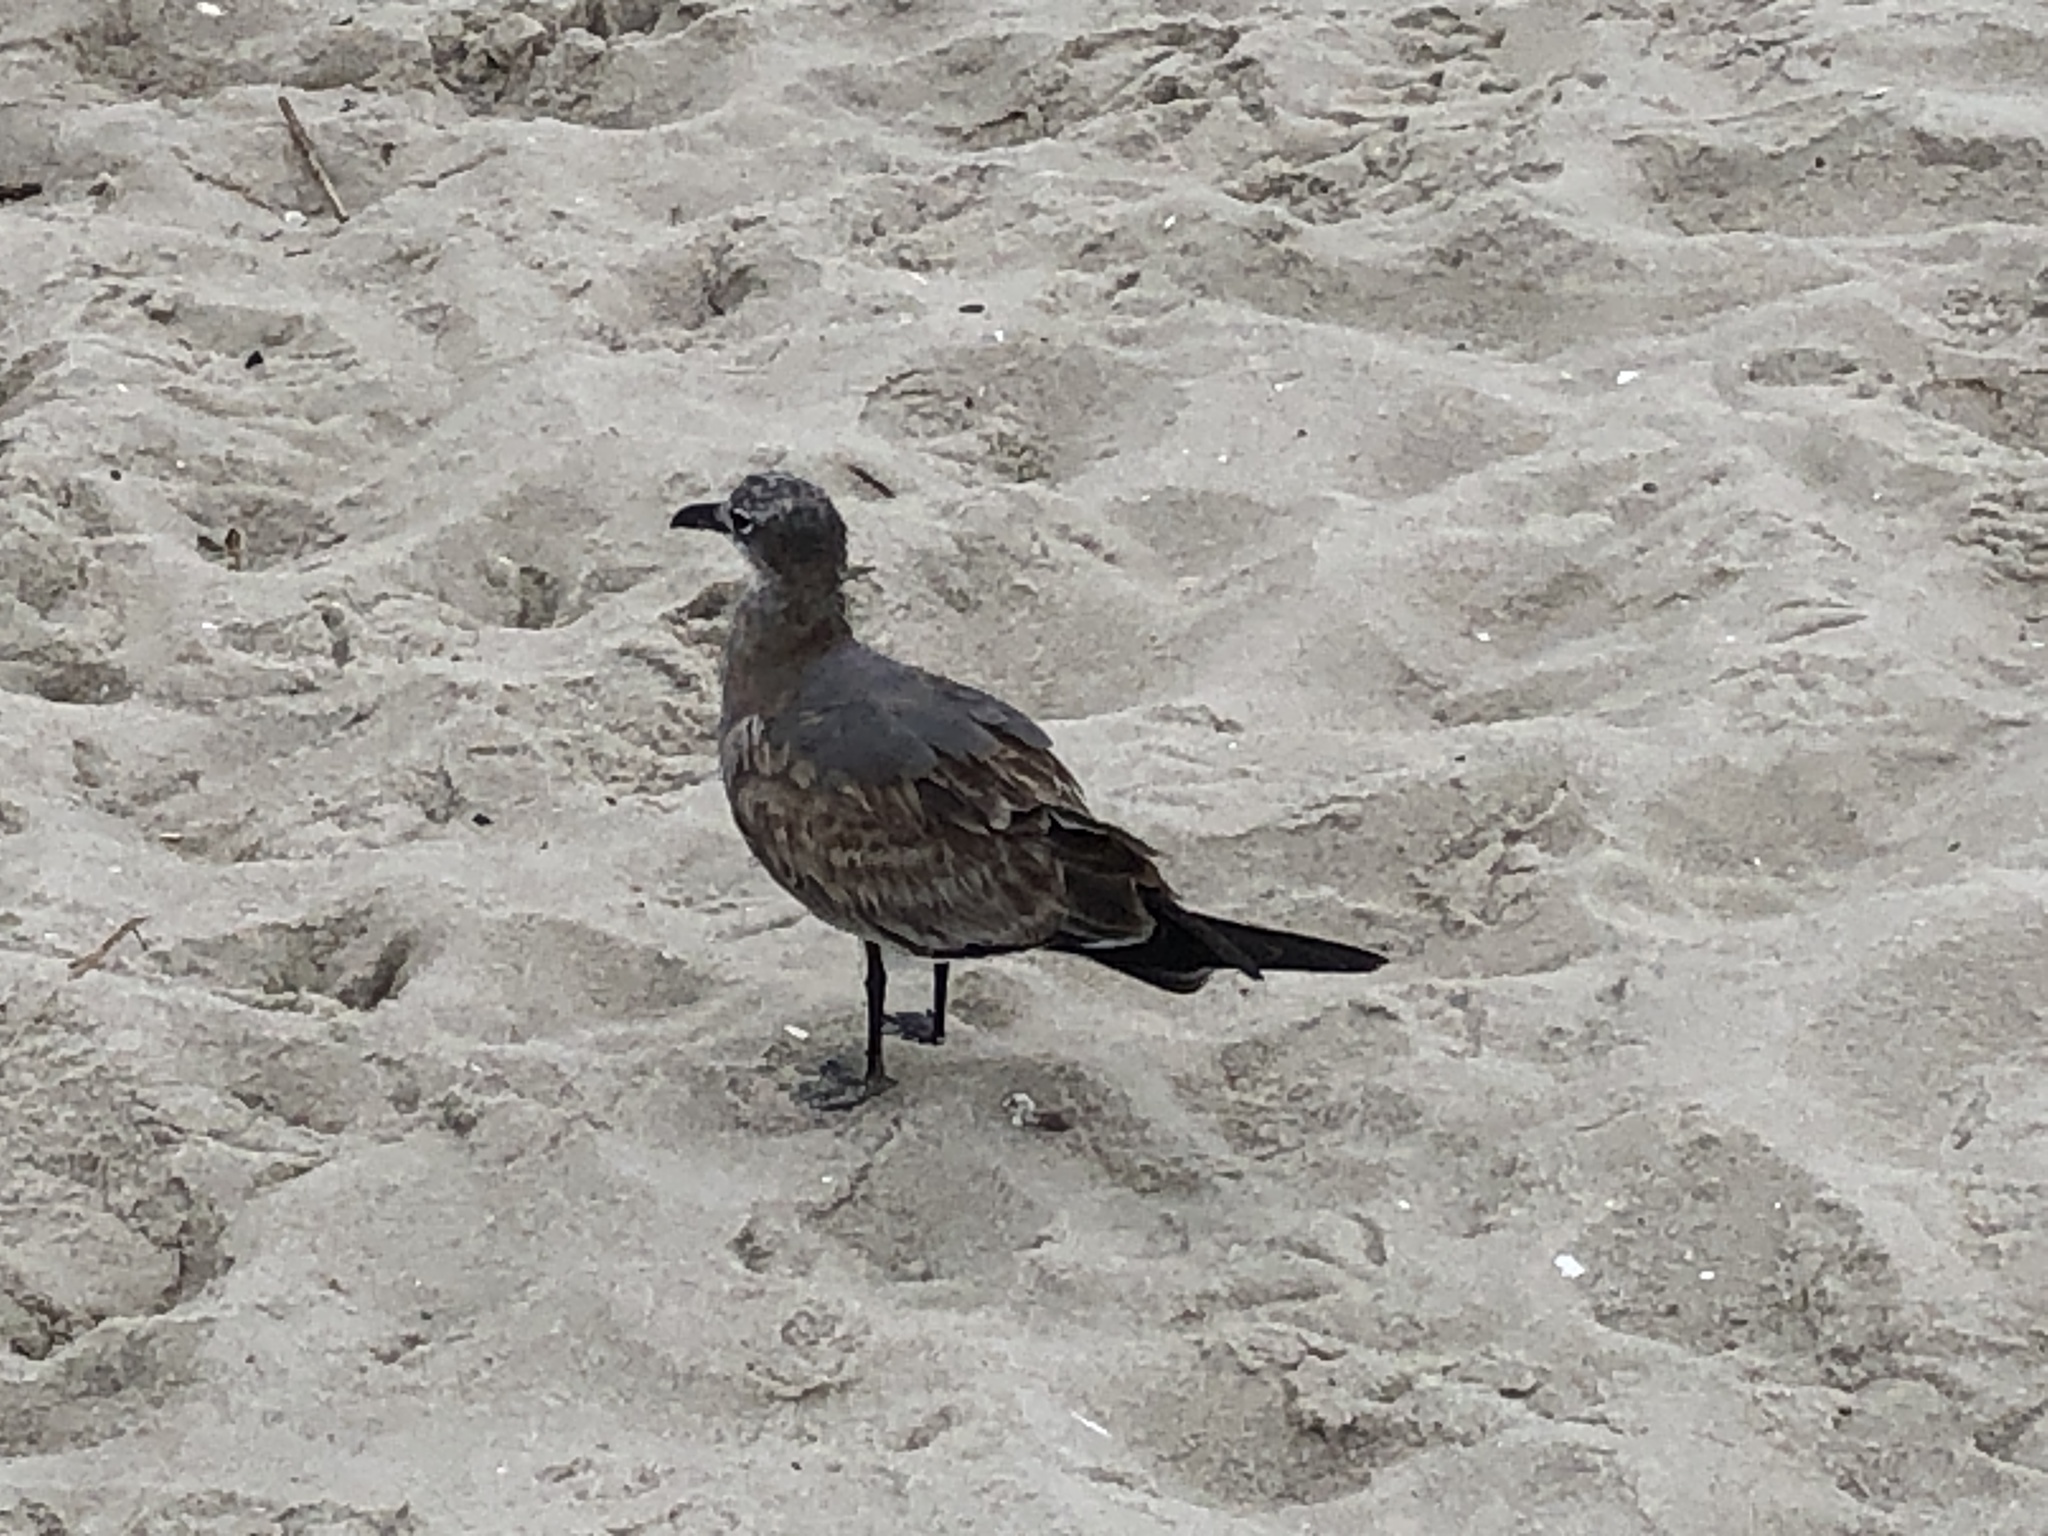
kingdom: Animalia
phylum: Chordata
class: Aves
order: Charadriiformes
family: Laridae
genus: Leucophaeus
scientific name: Leucophaeus atricilla
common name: Laughing gull
